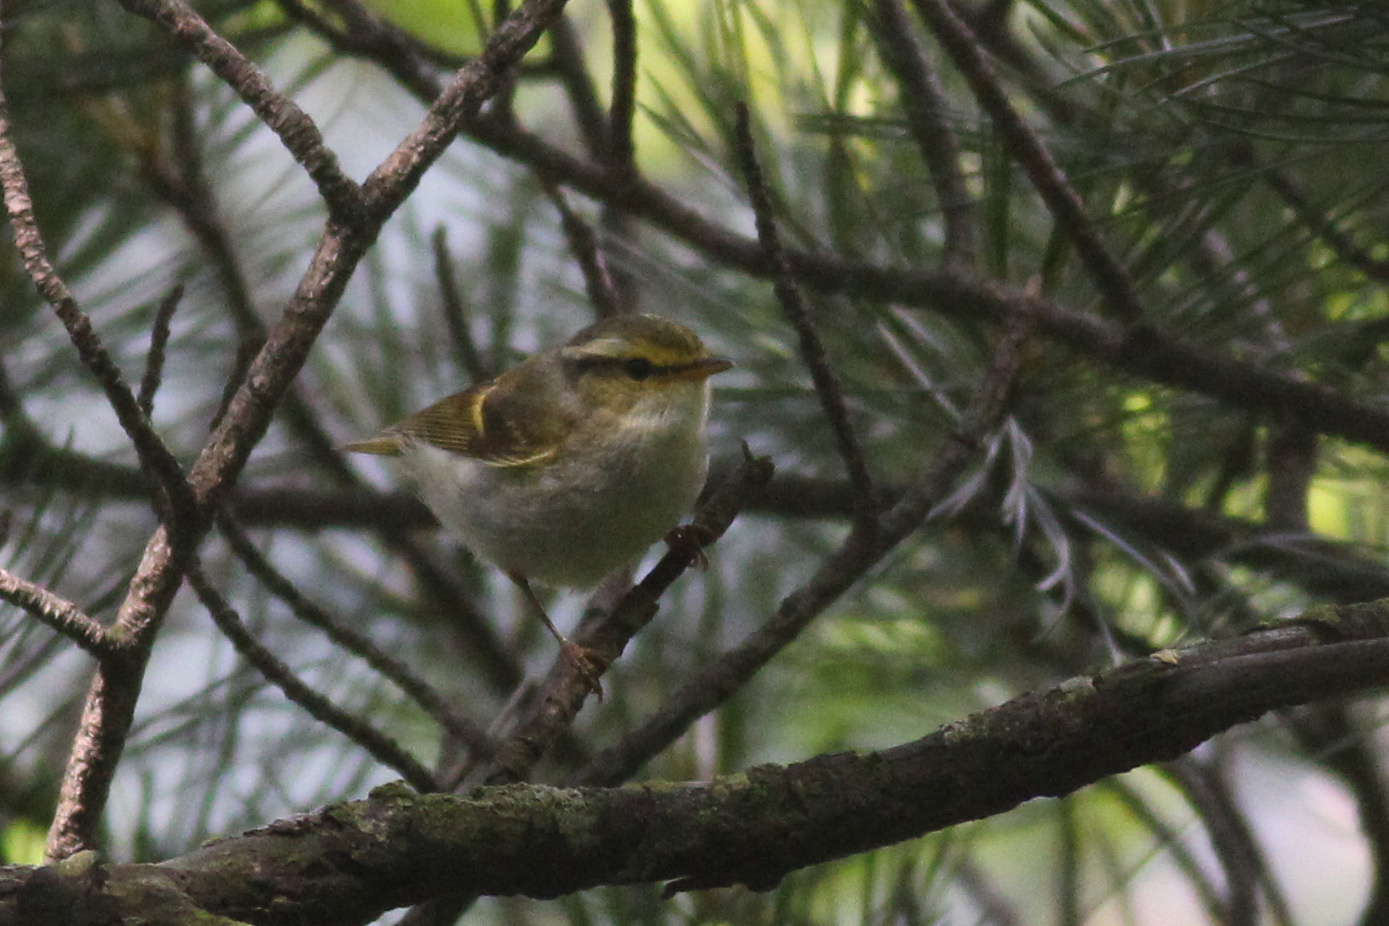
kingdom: Animalia
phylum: Chordata
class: Aves
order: Passeriformes
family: Phylloscopidae
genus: Phylloscopus
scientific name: Phylloscopus proregulus
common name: Pallas's leaf warbler
